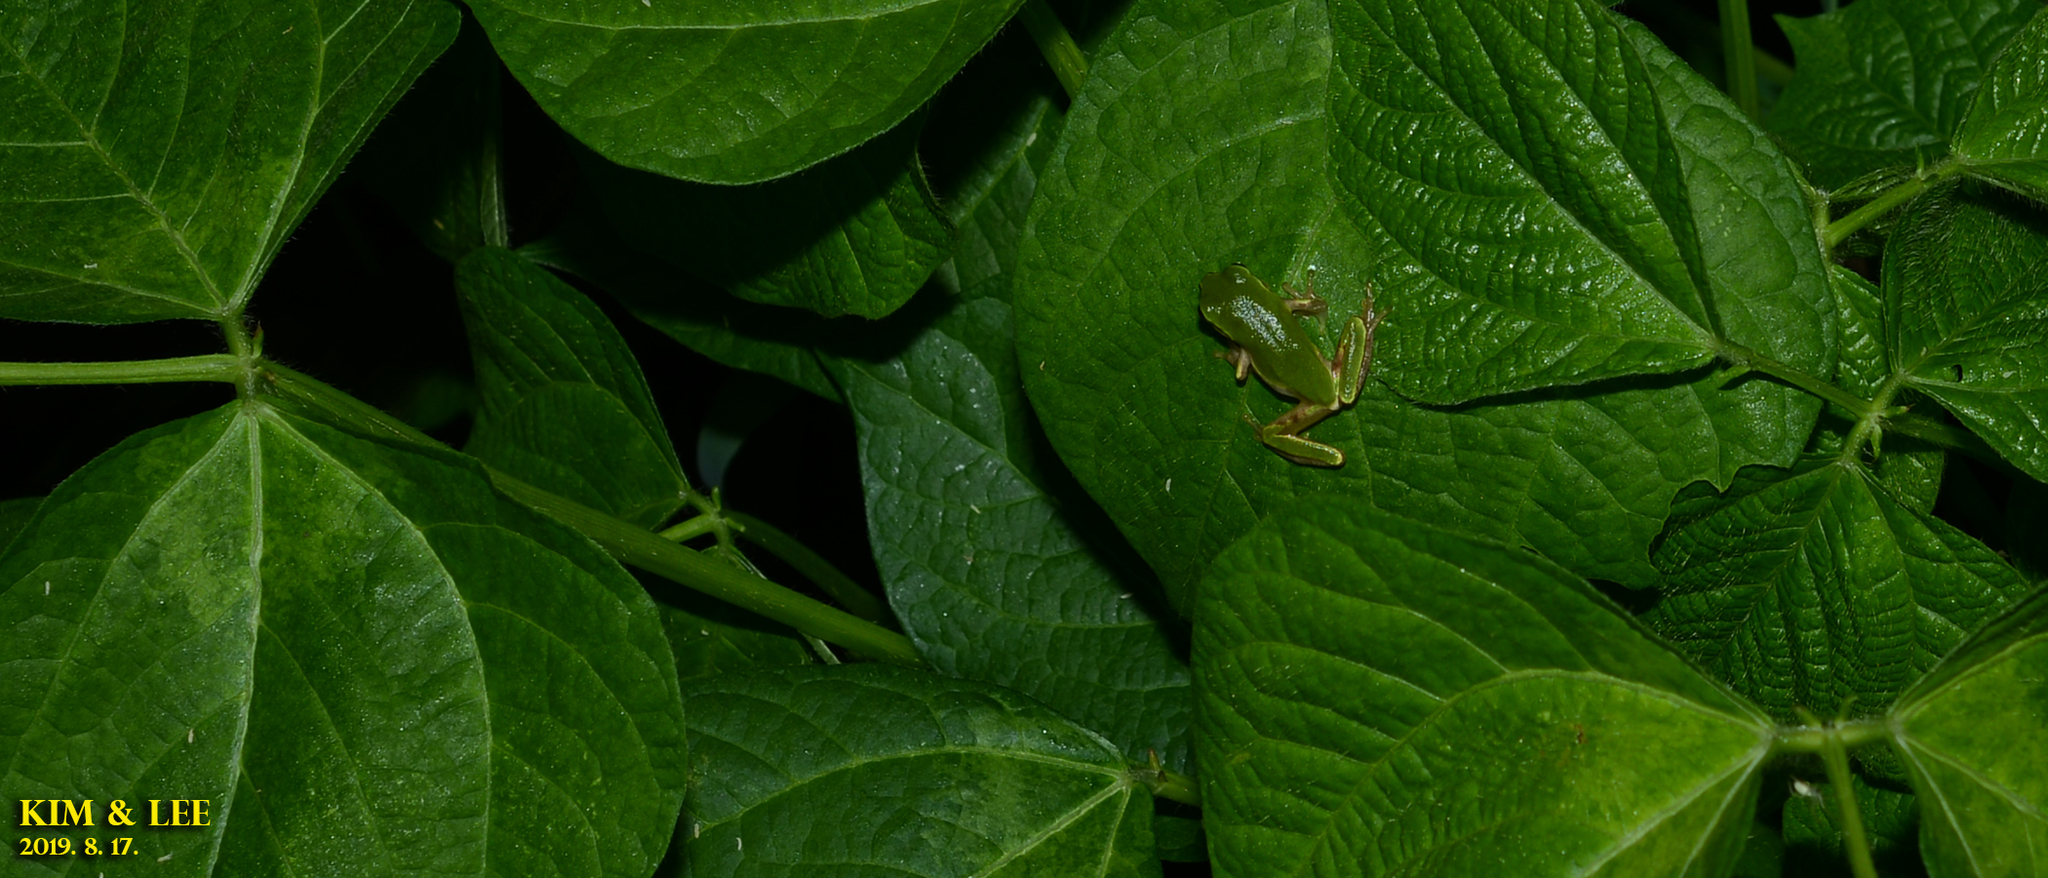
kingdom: Animalia
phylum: Chordata
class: Amphibia
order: Anura
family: Hylidae
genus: Dryophytes
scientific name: Dryophytes japonicus
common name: Japanese treefrog
